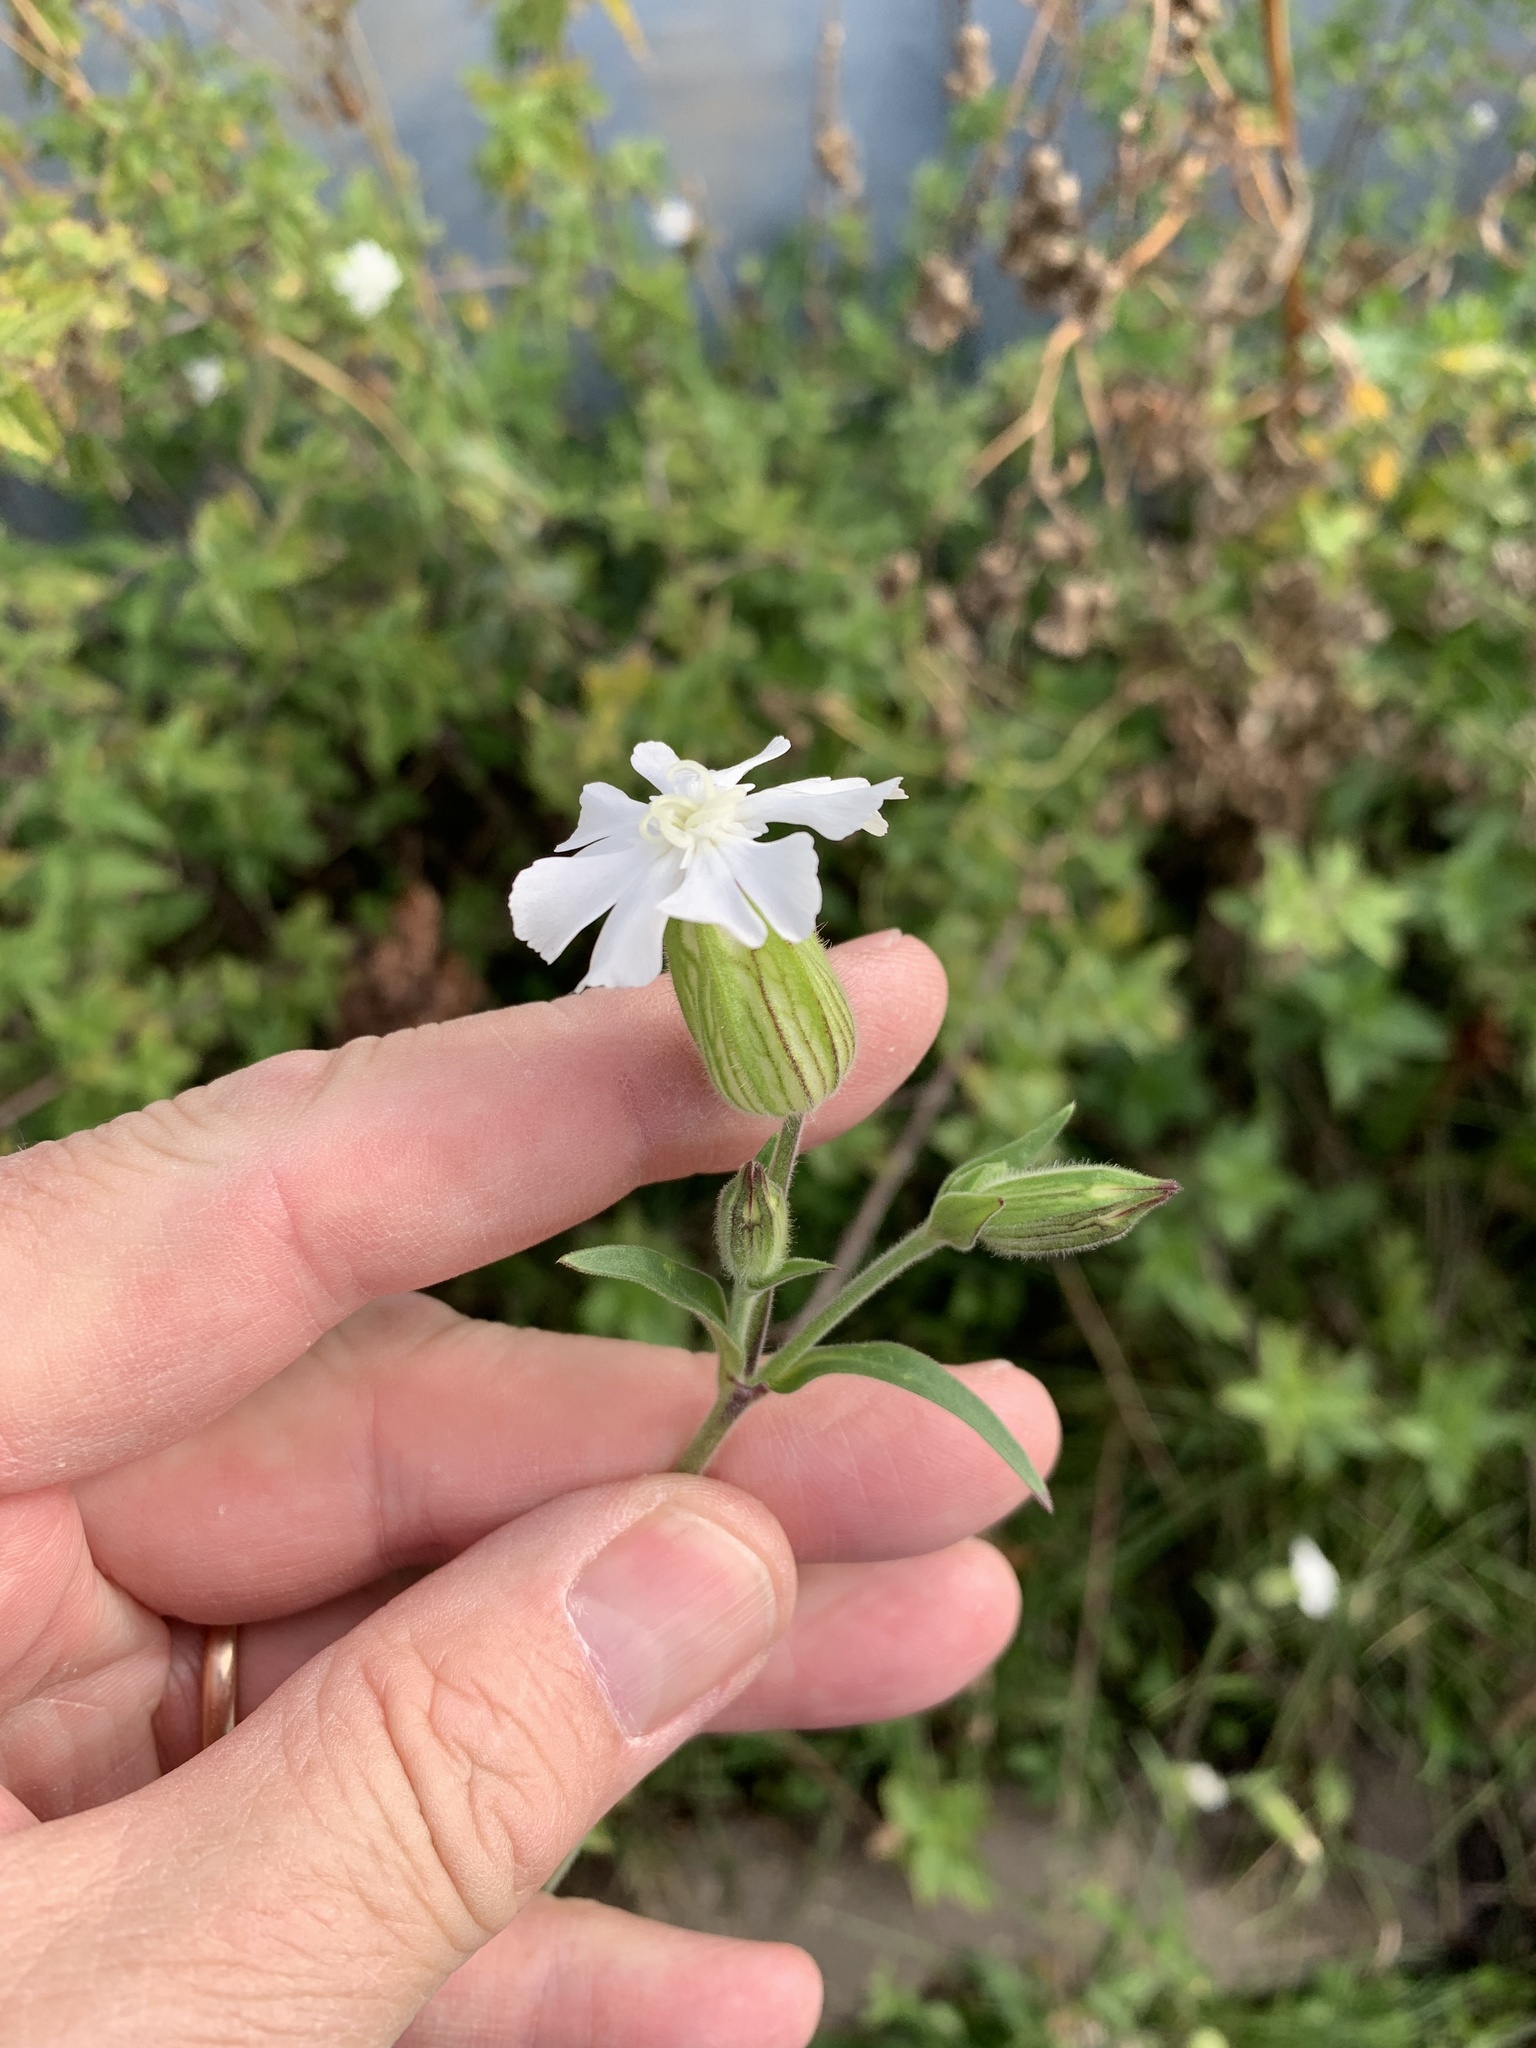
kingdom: Plantae
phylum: Tracheophyta
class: Magnoliopsida
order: Caryophyllales
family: Caryophyllaceae
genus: Silene
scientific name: Silene latifolia
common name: White campion
